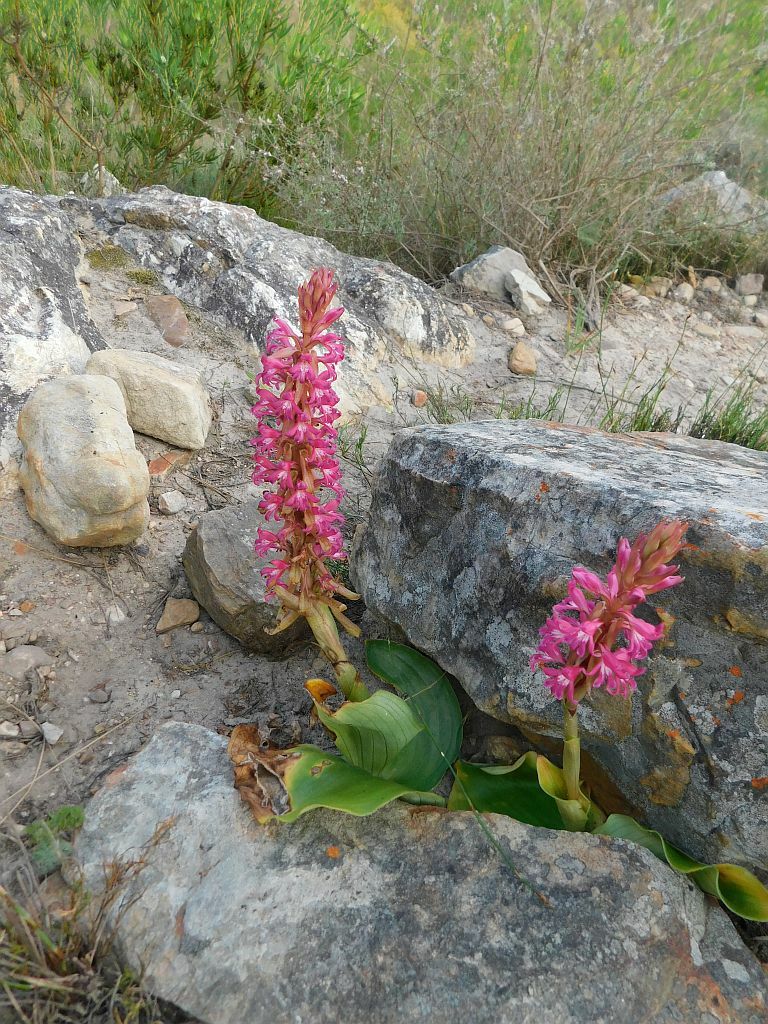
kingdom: Plantae
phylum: Tracheophyta
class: Liliopsida
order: Asparagales
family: Orchidaceae
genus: Satyrium
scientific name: Satyrium erectum
